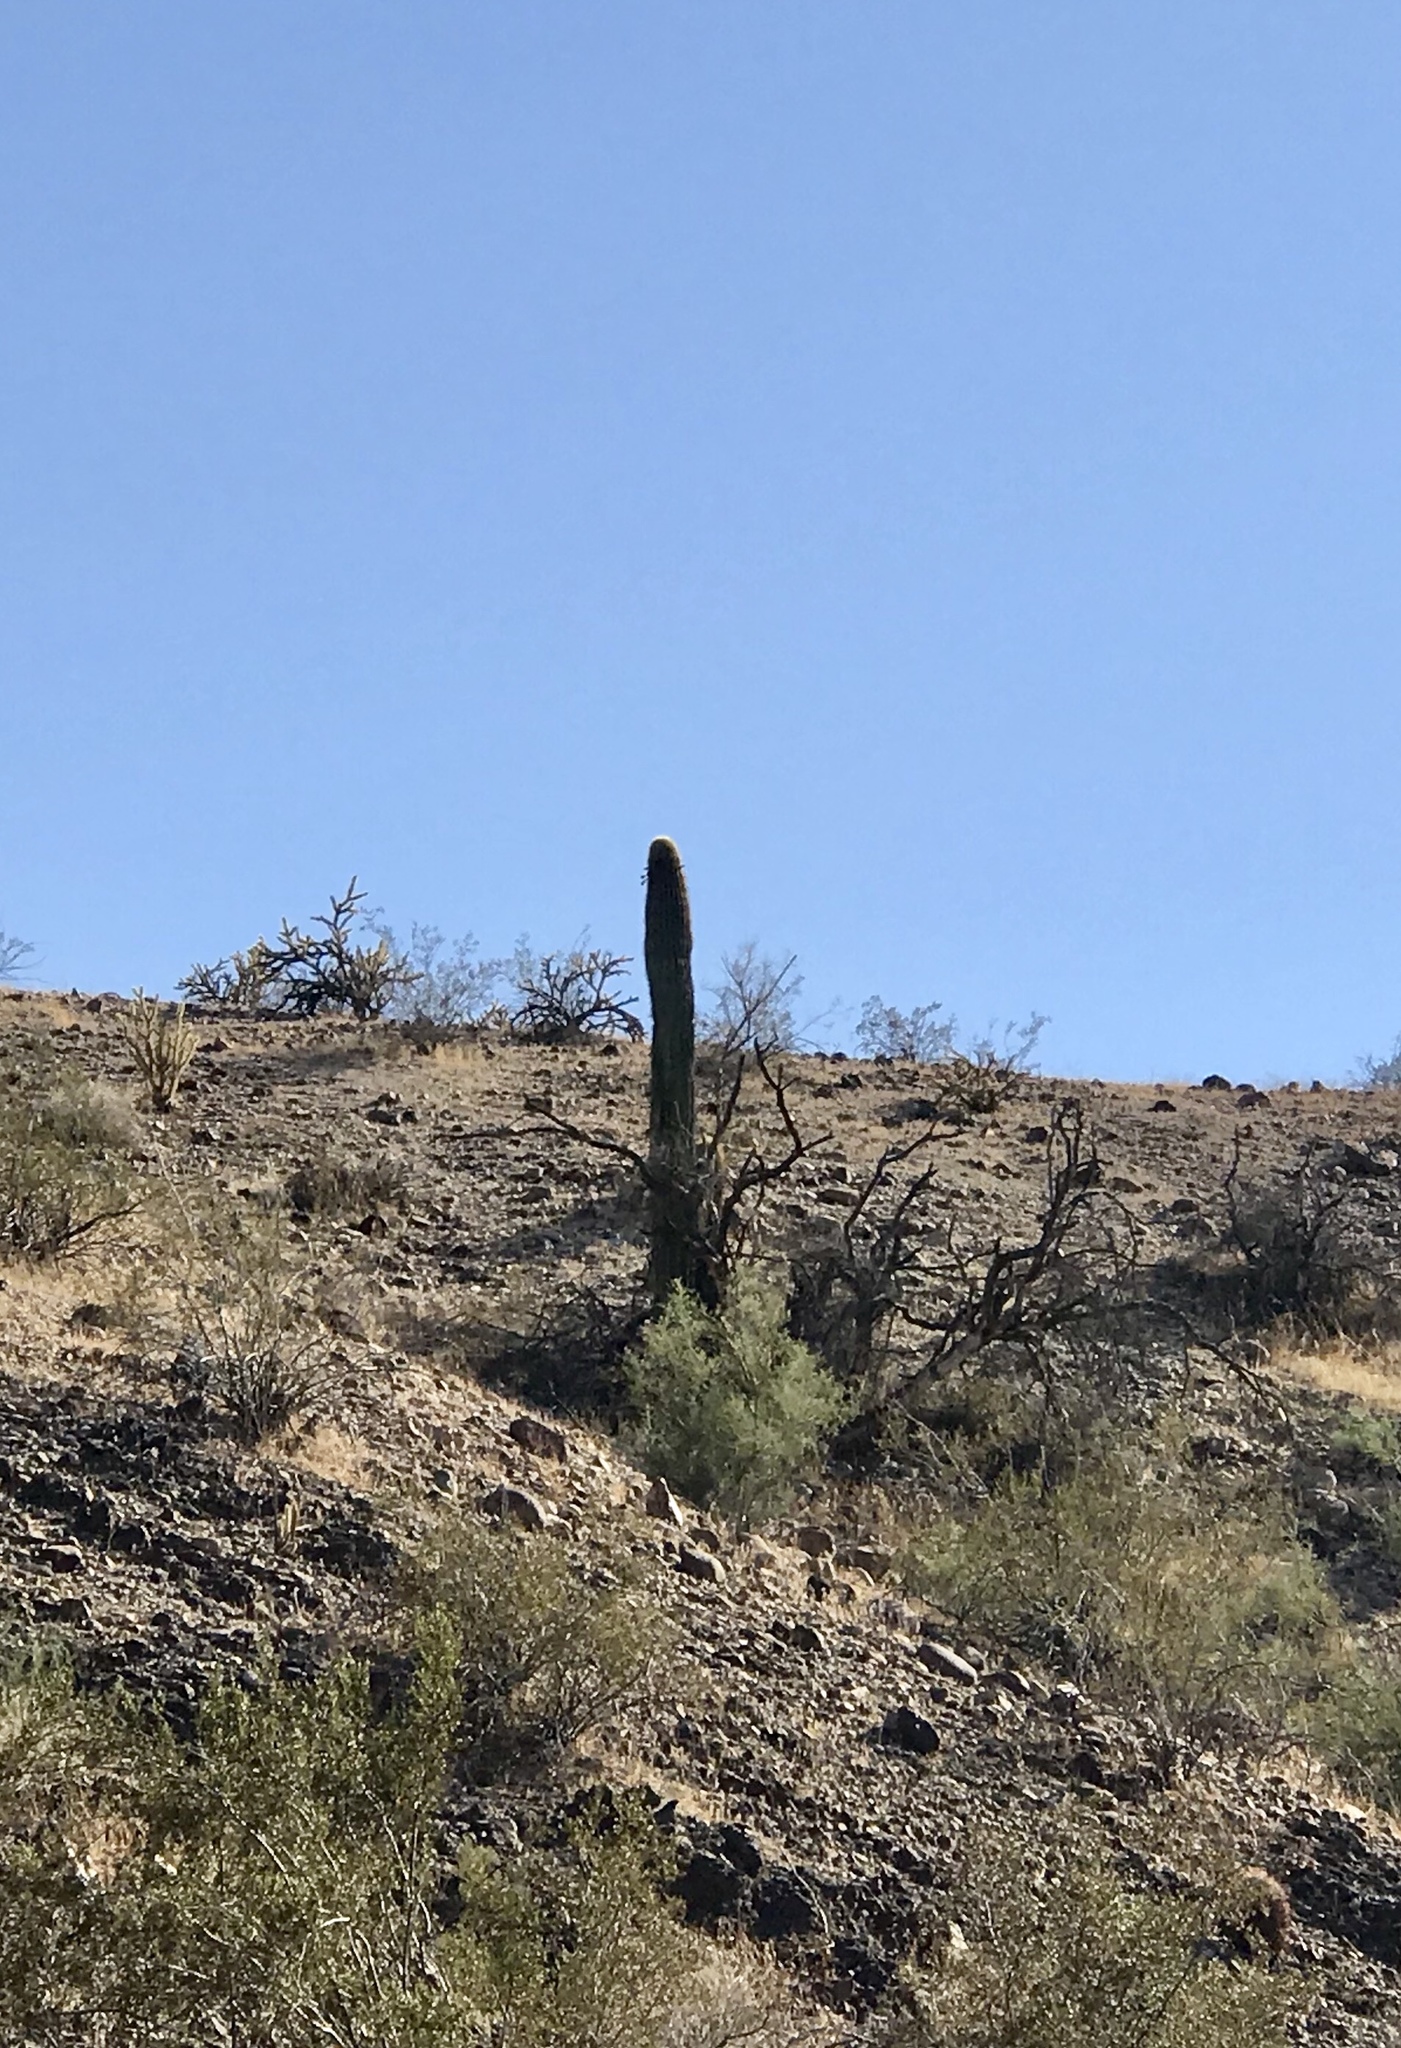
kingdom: Plantae
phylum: Tracheophyta
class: Magnoliopsida
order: Caryophyllales
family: Cactaceae
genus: Carnegiea
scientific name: Carnegiea gigantea
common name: Saguaro
